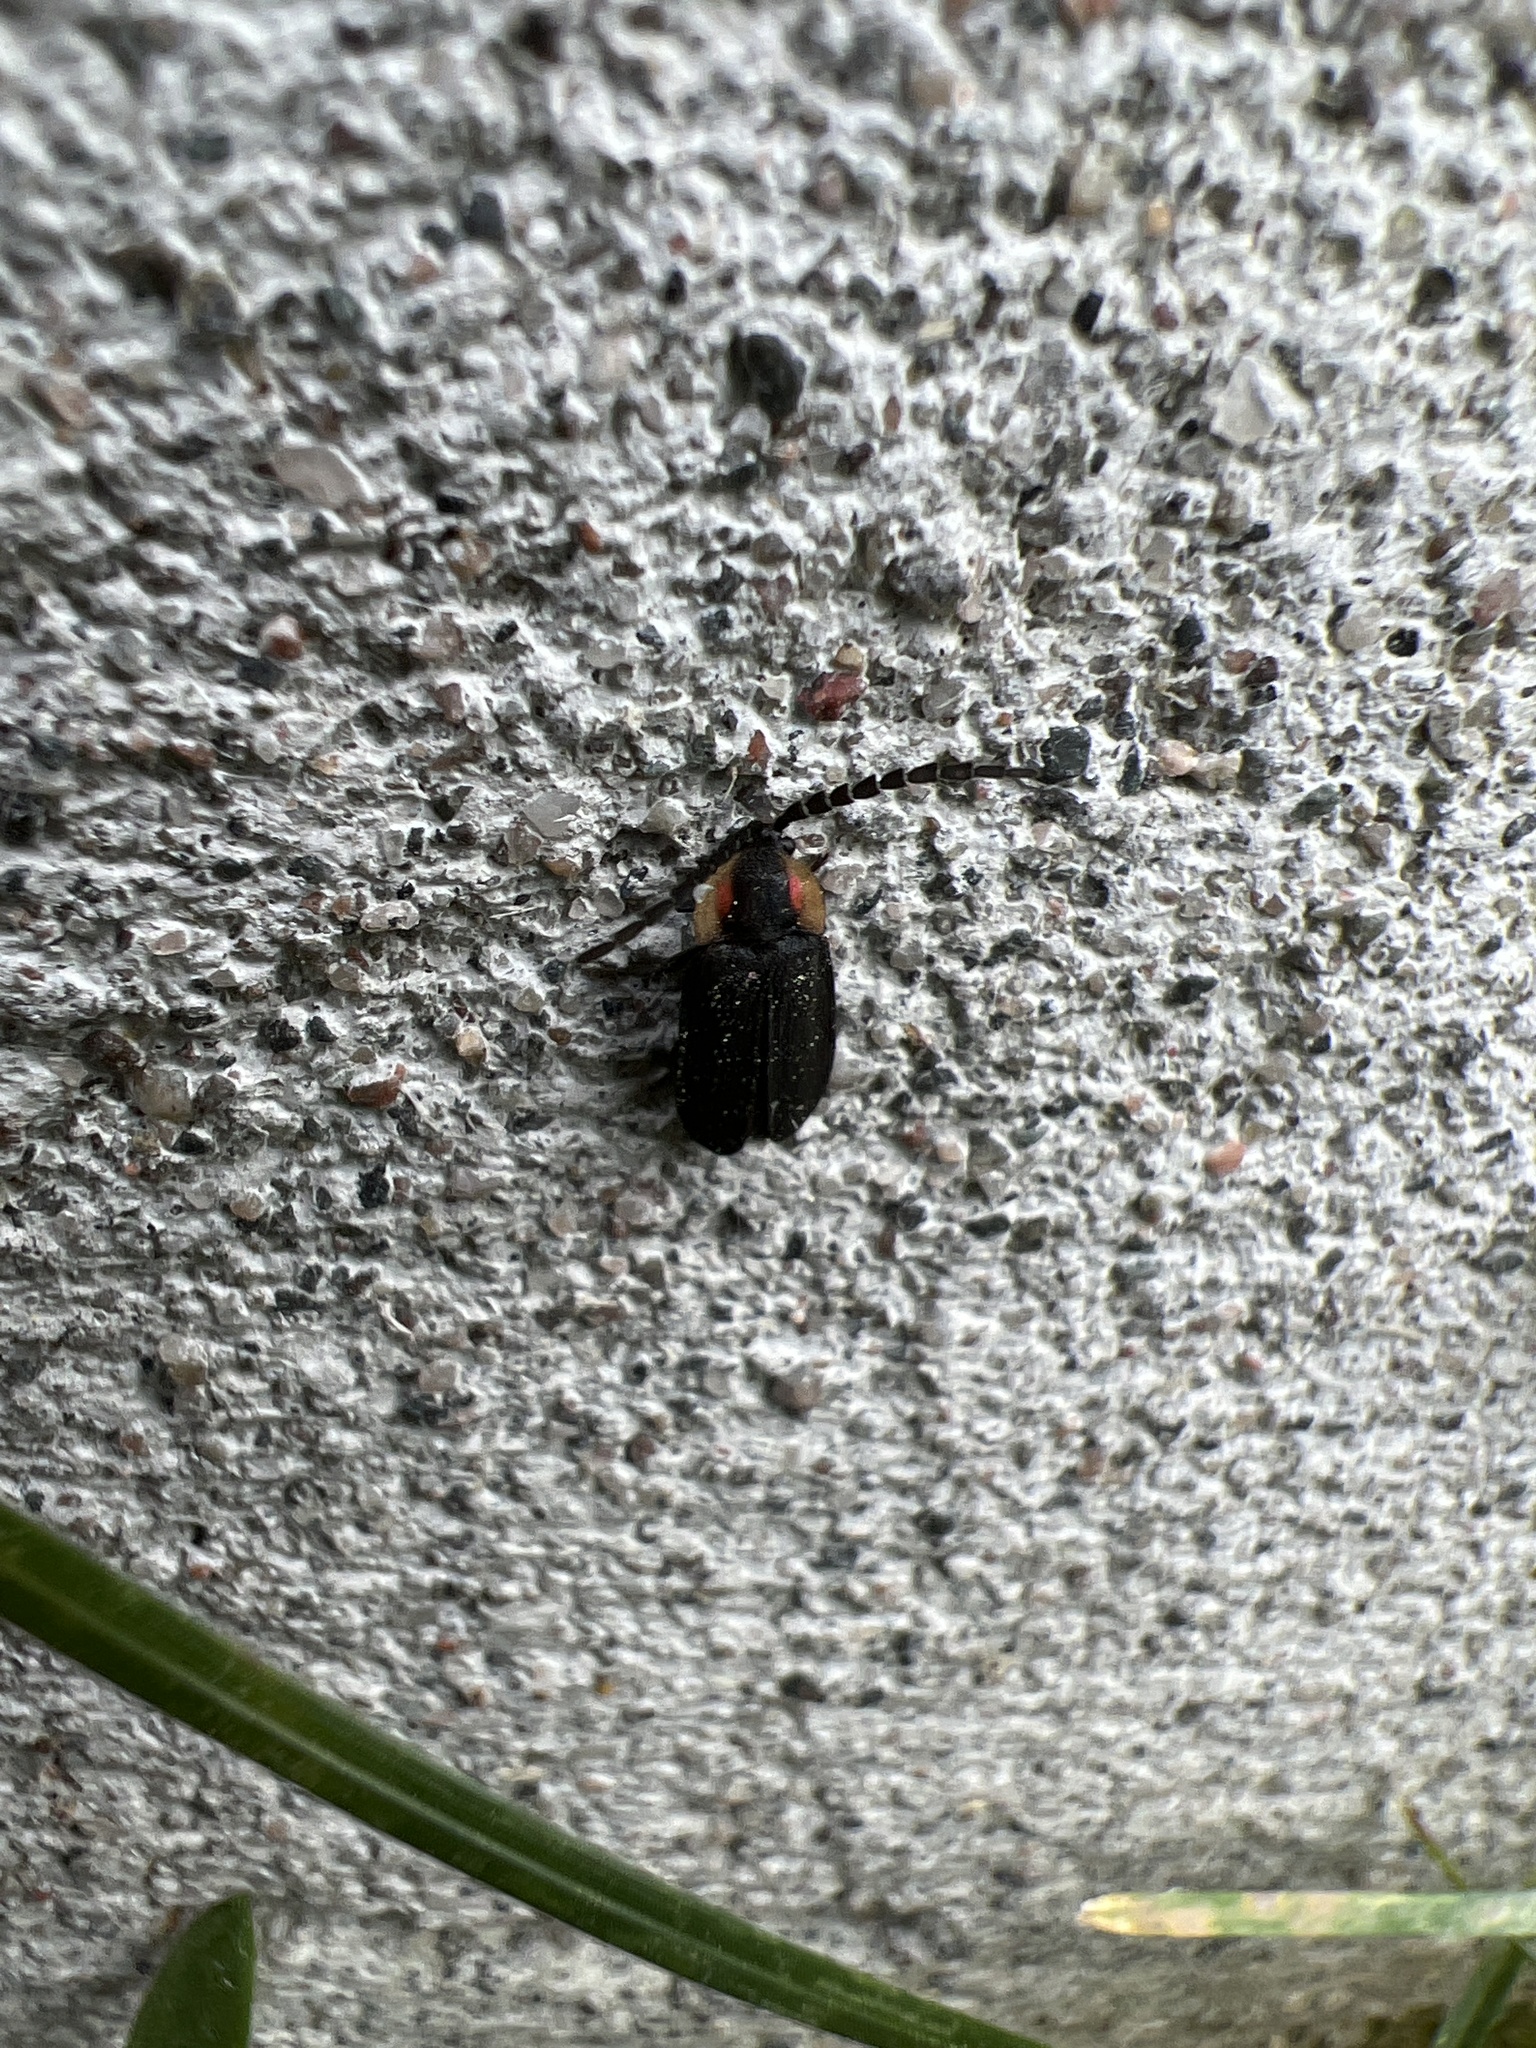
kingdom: Animalia
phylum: Arthropoda
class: Insecta
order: Coleoptera
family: Lampyridae
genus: Lucidota
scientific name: Lucidota atra
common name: Black firefly
